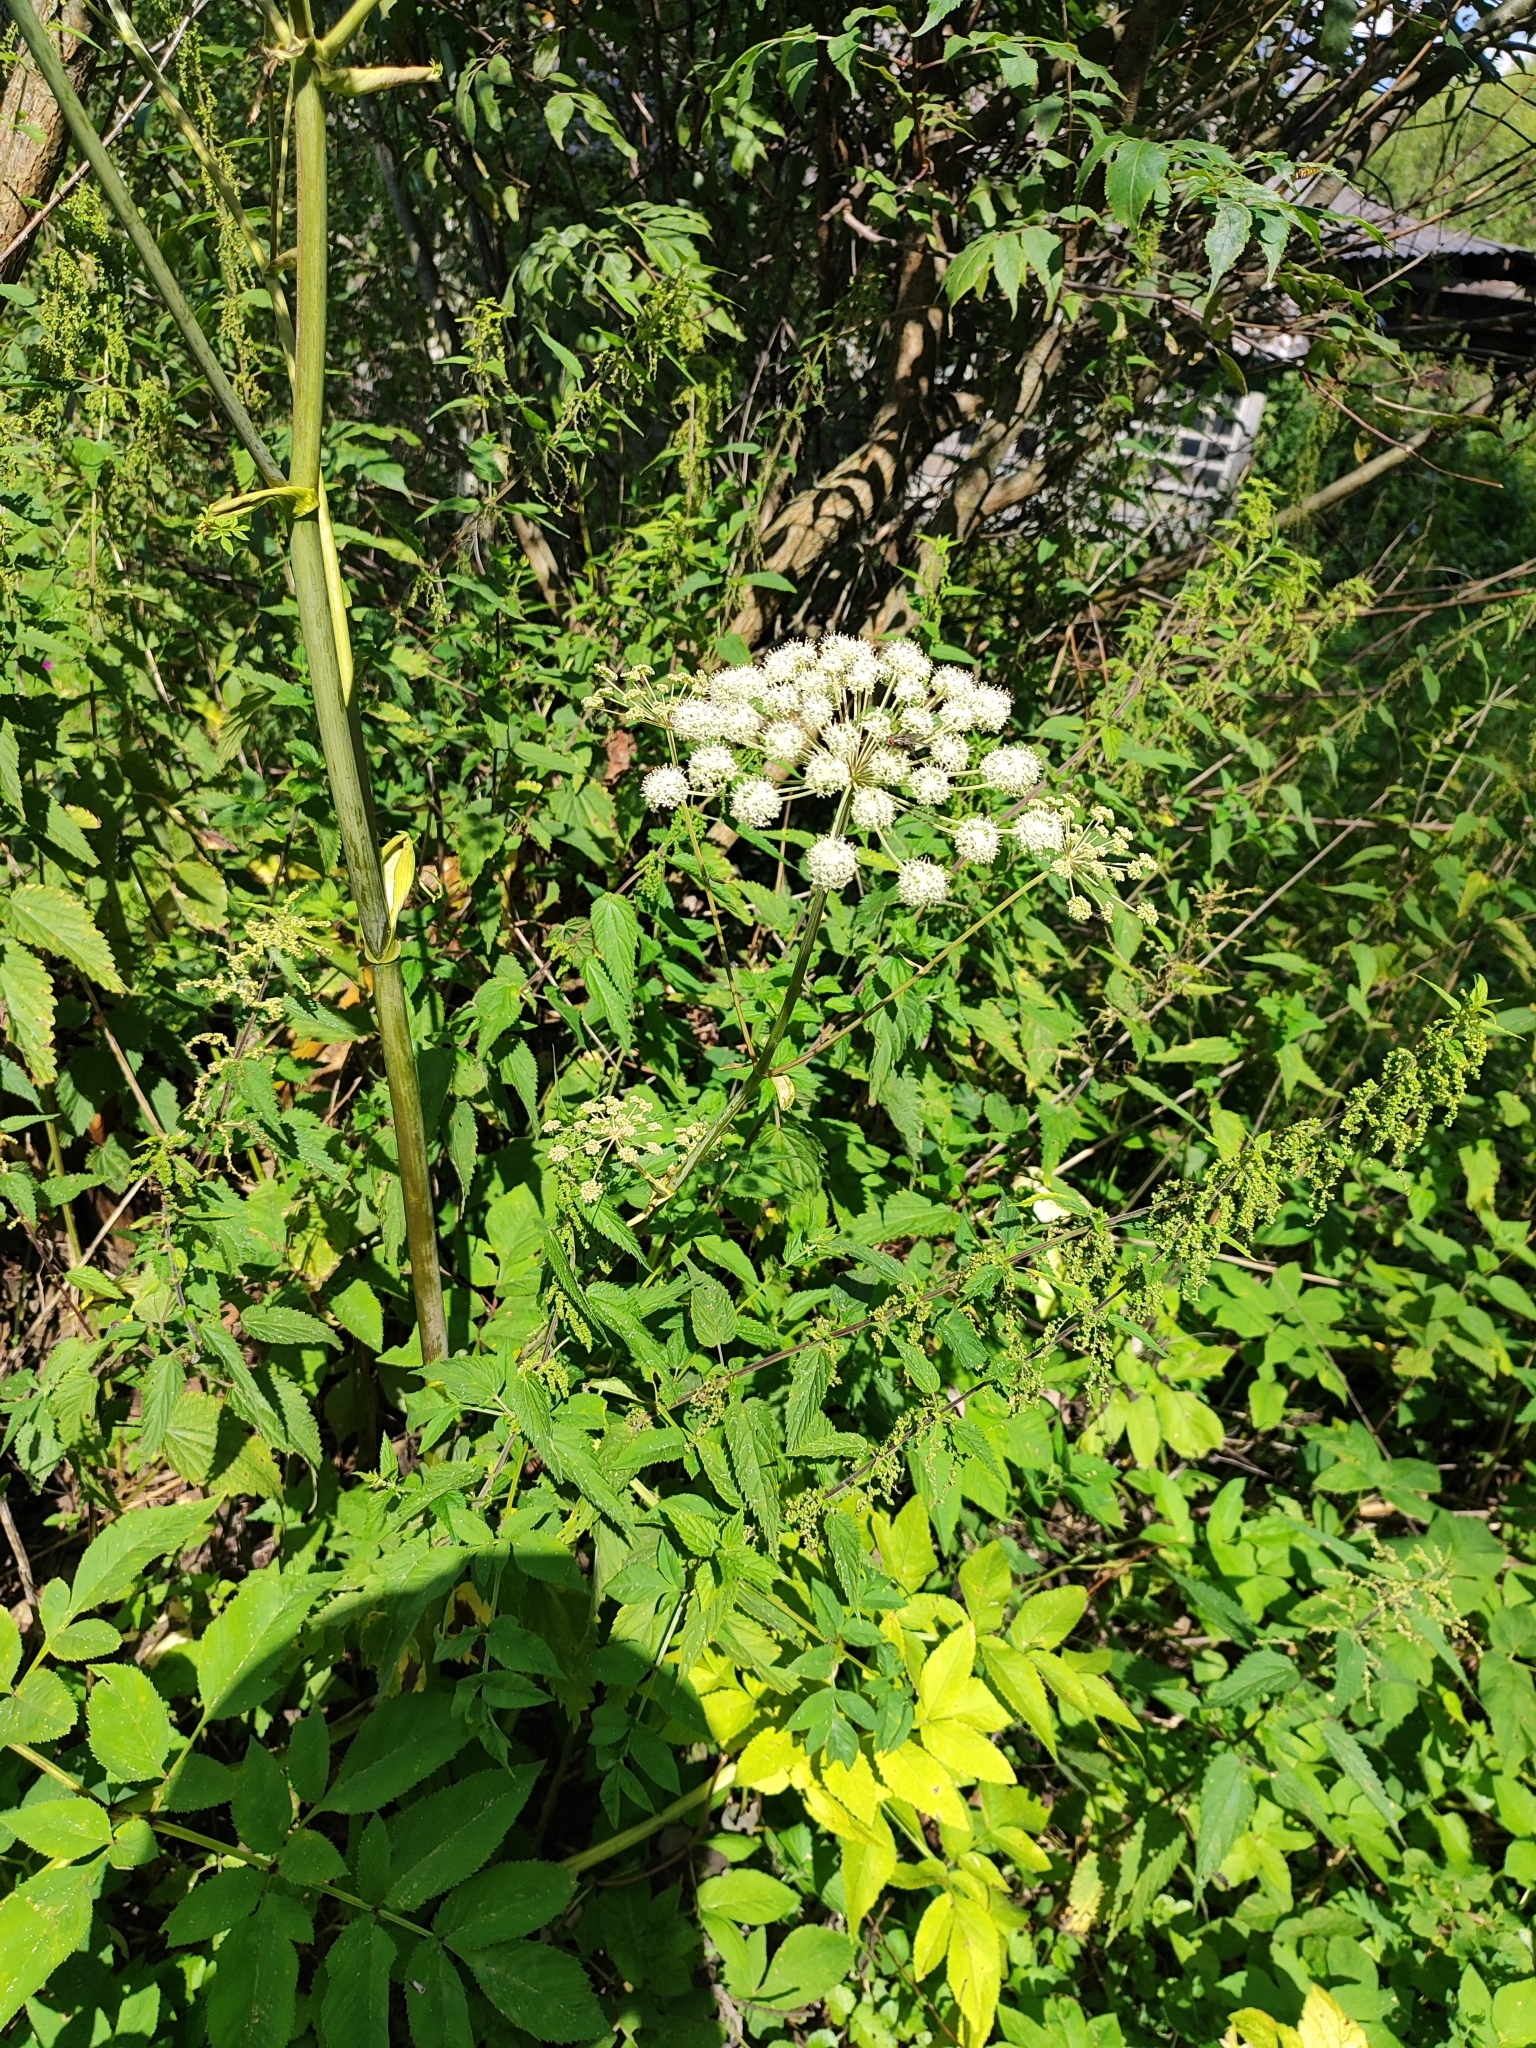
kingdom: Plantae
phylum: Tracheophyta
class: Magnoliopsida
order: Apiales
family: Apiaceae
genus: Angelica
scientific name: Angelica sylvestris
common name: Wild angelica
